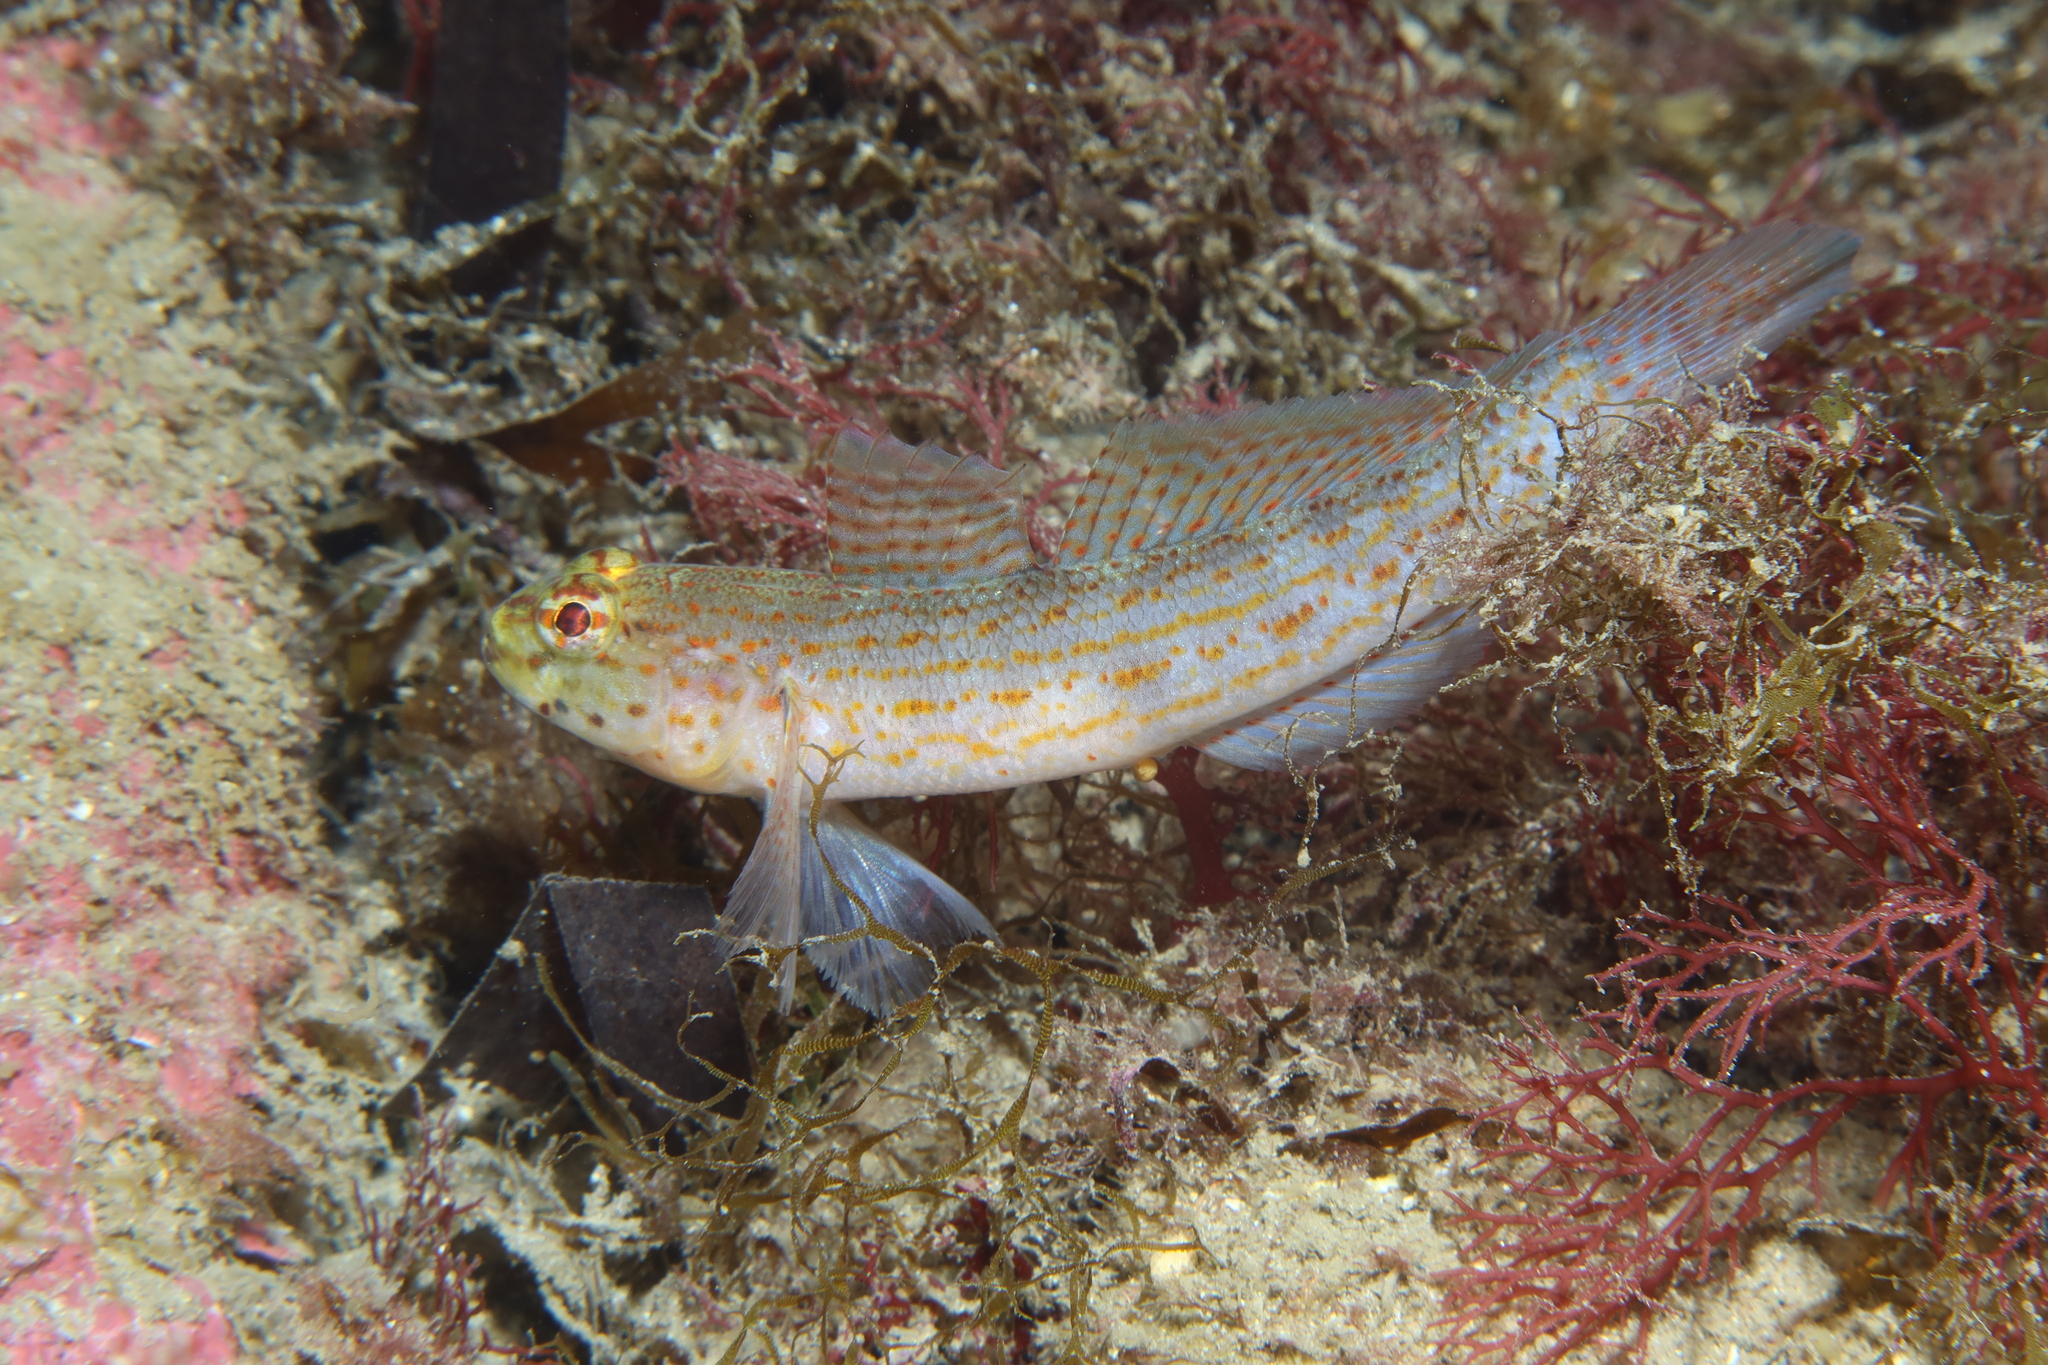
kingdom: Animalia
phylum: Chordata
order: Perciformes
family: Gobiidae
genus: Gobius
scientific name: Gobius xanthocephalus
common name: Golden goby
